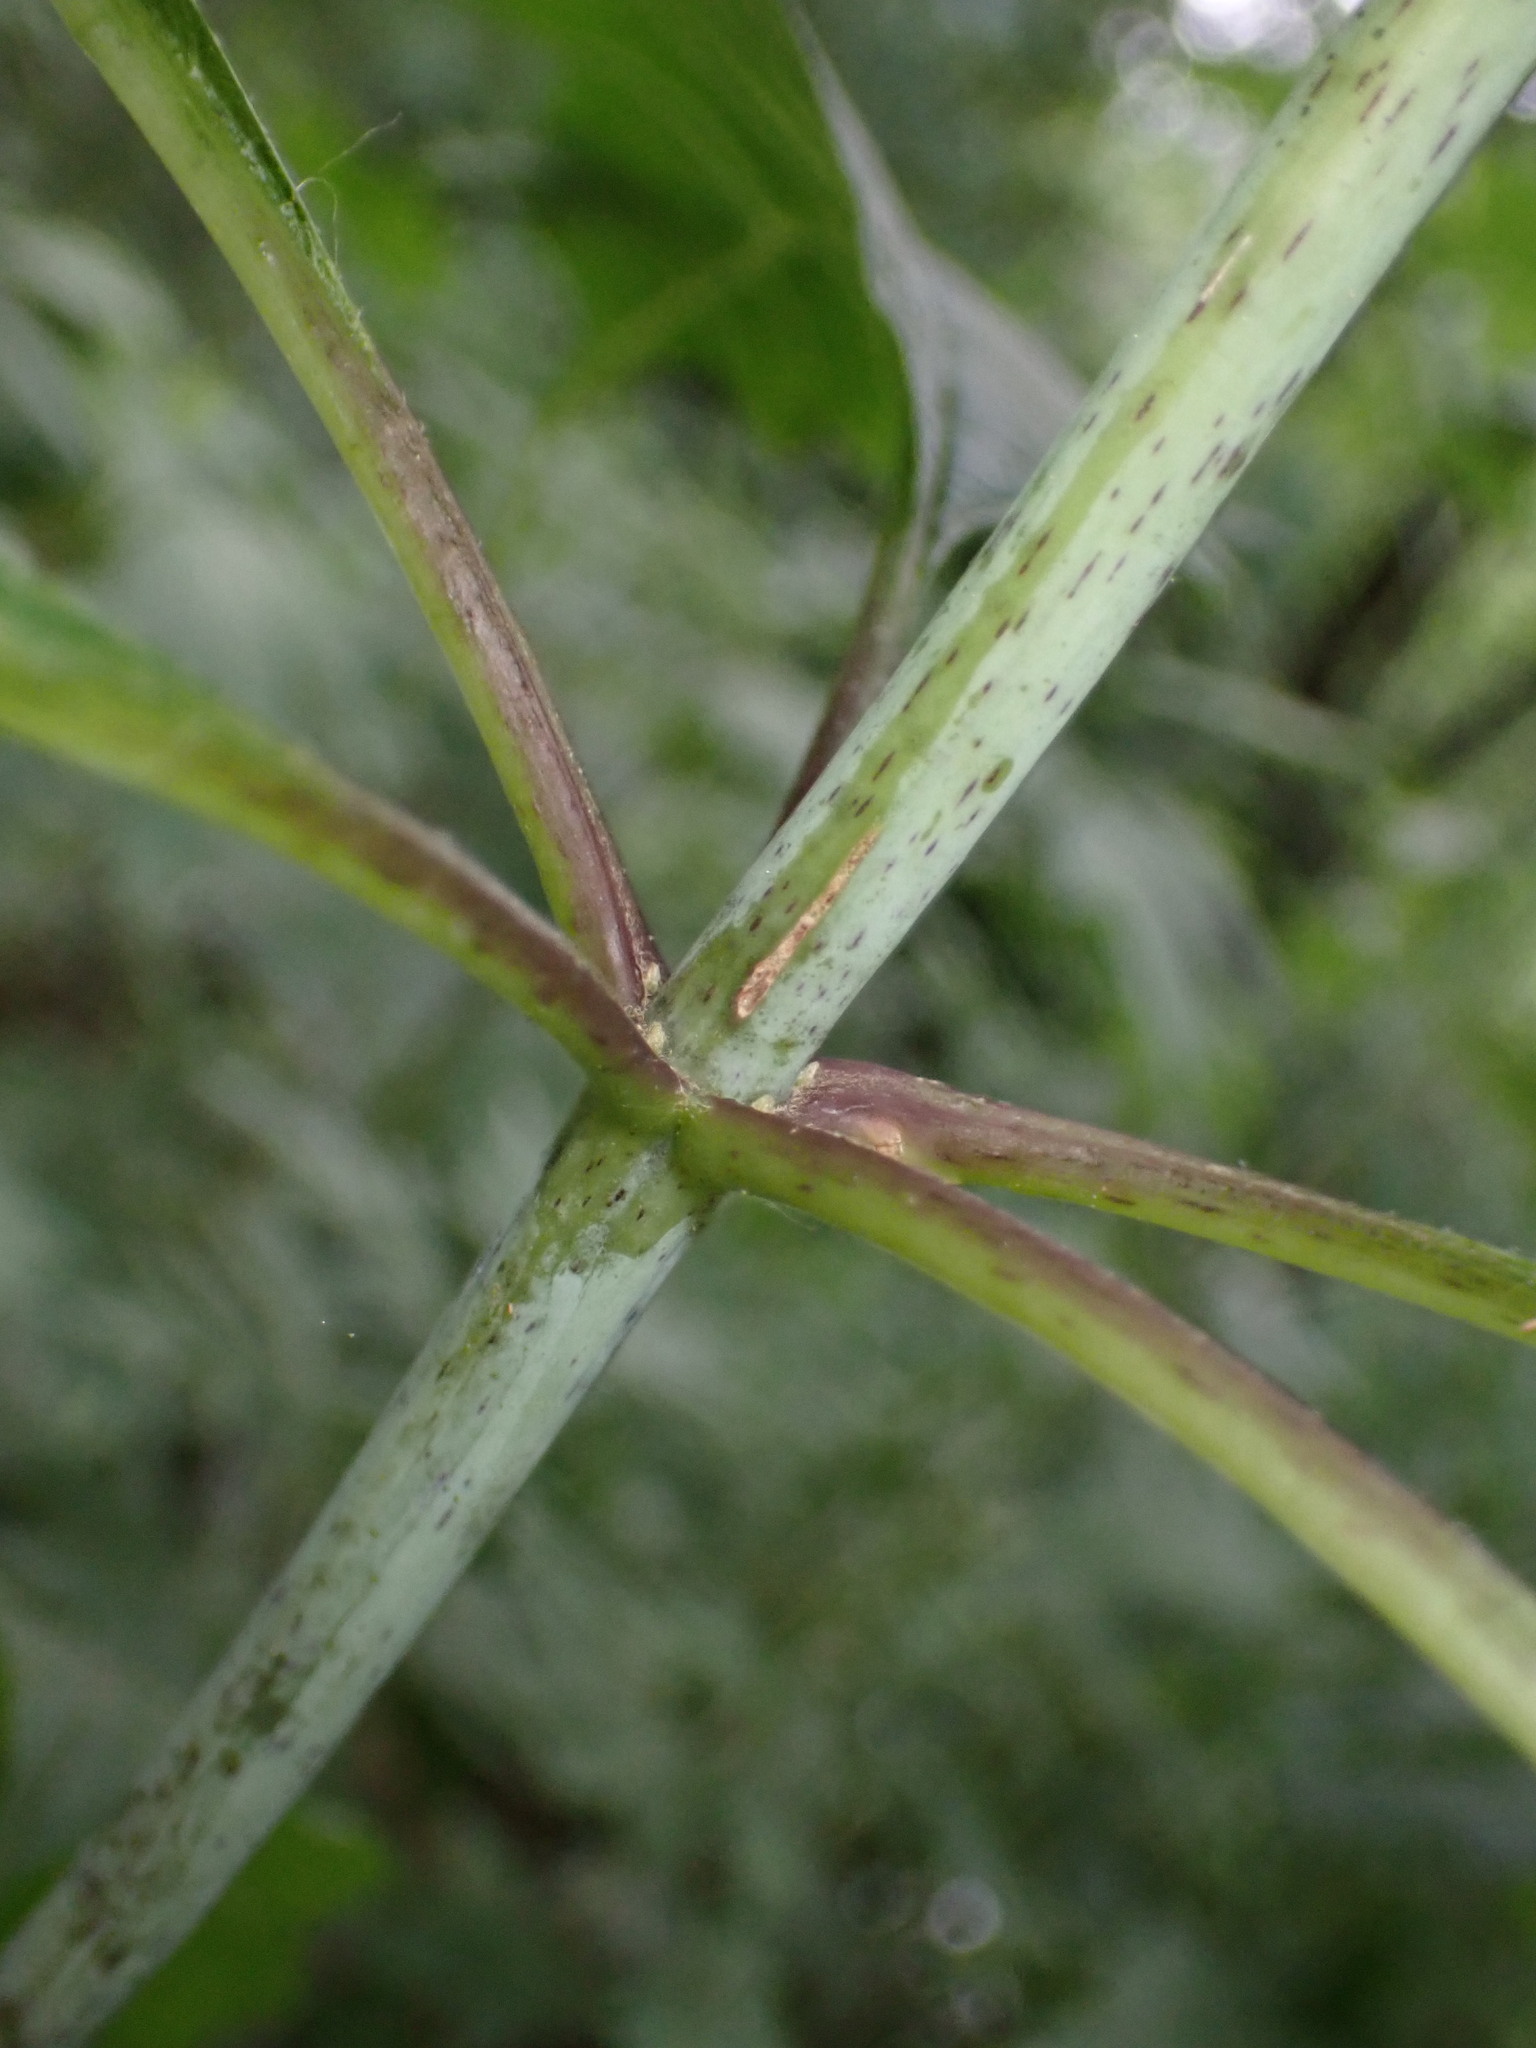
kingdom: Plantae
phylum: Tracheophyta
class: Magnoliopsida
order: Asterales
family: Asteraceae
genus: Eutrochium
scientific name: Eutrochium fistulosum
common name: Trumpetweed
